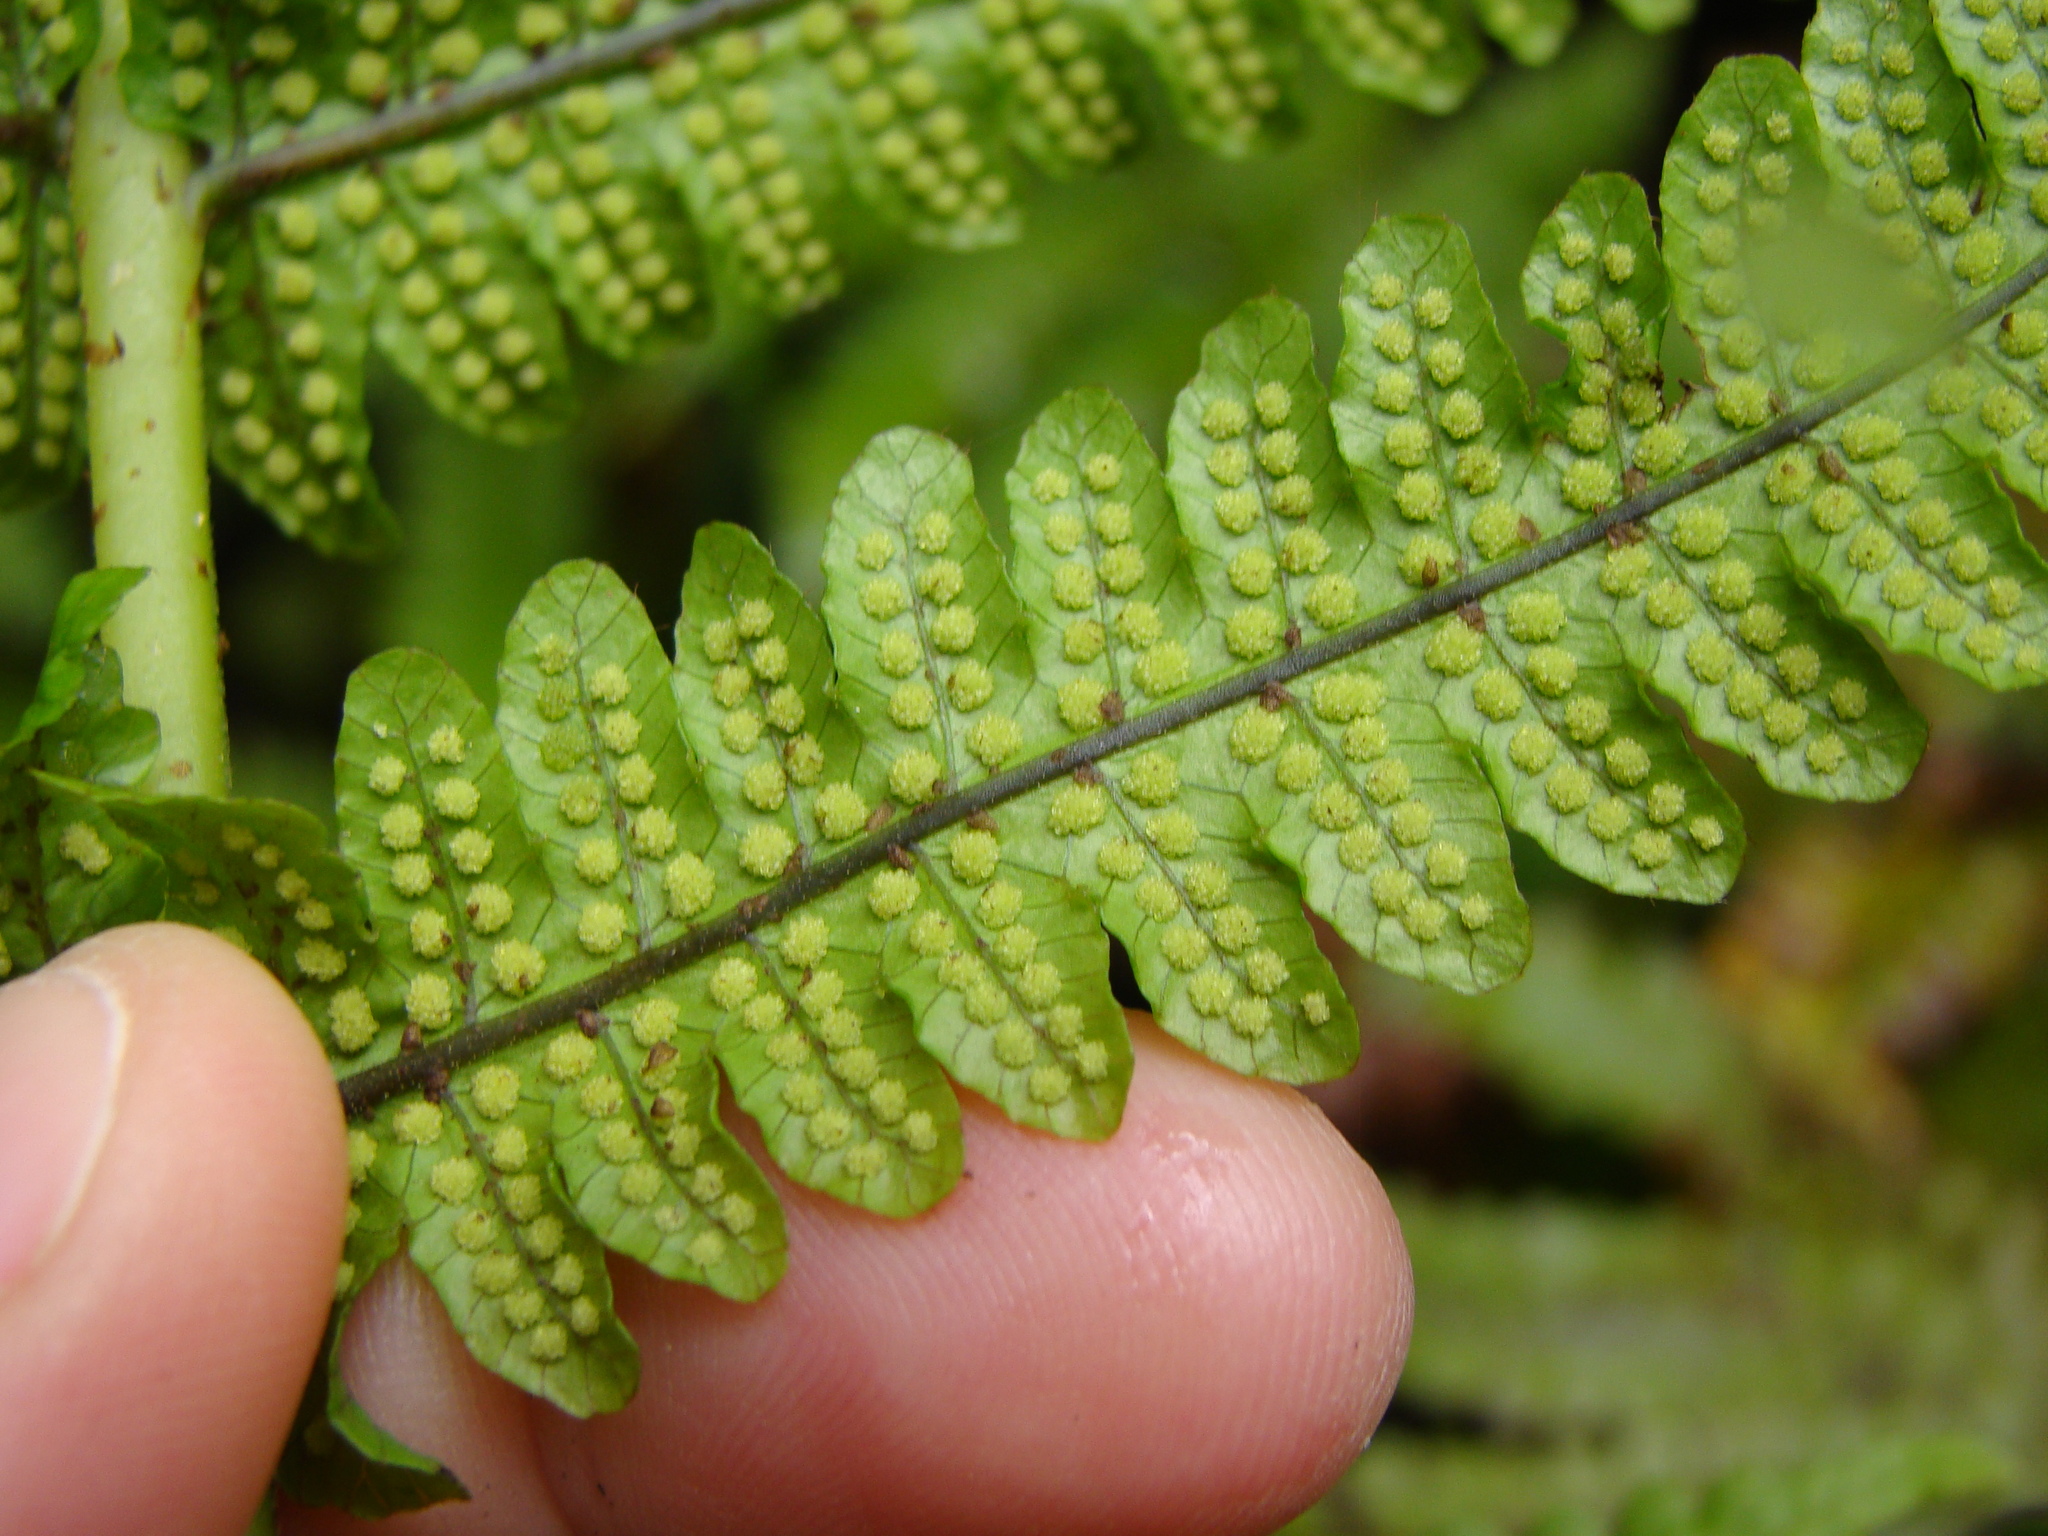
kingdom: Plantae
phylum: Tracheophyta
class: Polypodiopsida
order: Polypodiales
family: Thelypteridaceae
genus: Pakau
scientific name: Pakau pennigera
